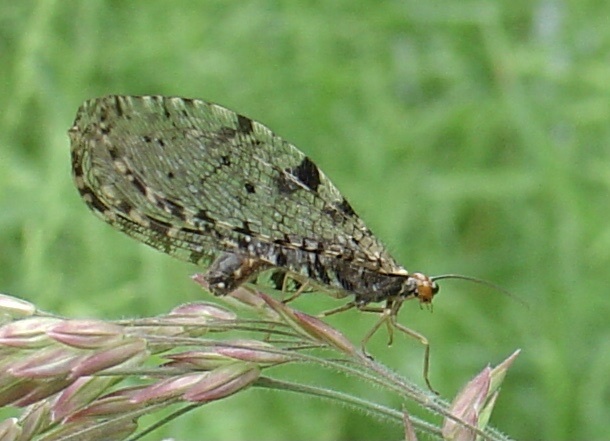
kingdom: Animalia
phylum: Arthropoda
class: Insecta
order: Neuroptera
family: Osmylidae
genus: Osmylus
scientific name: Osmylus fulvicephalus
